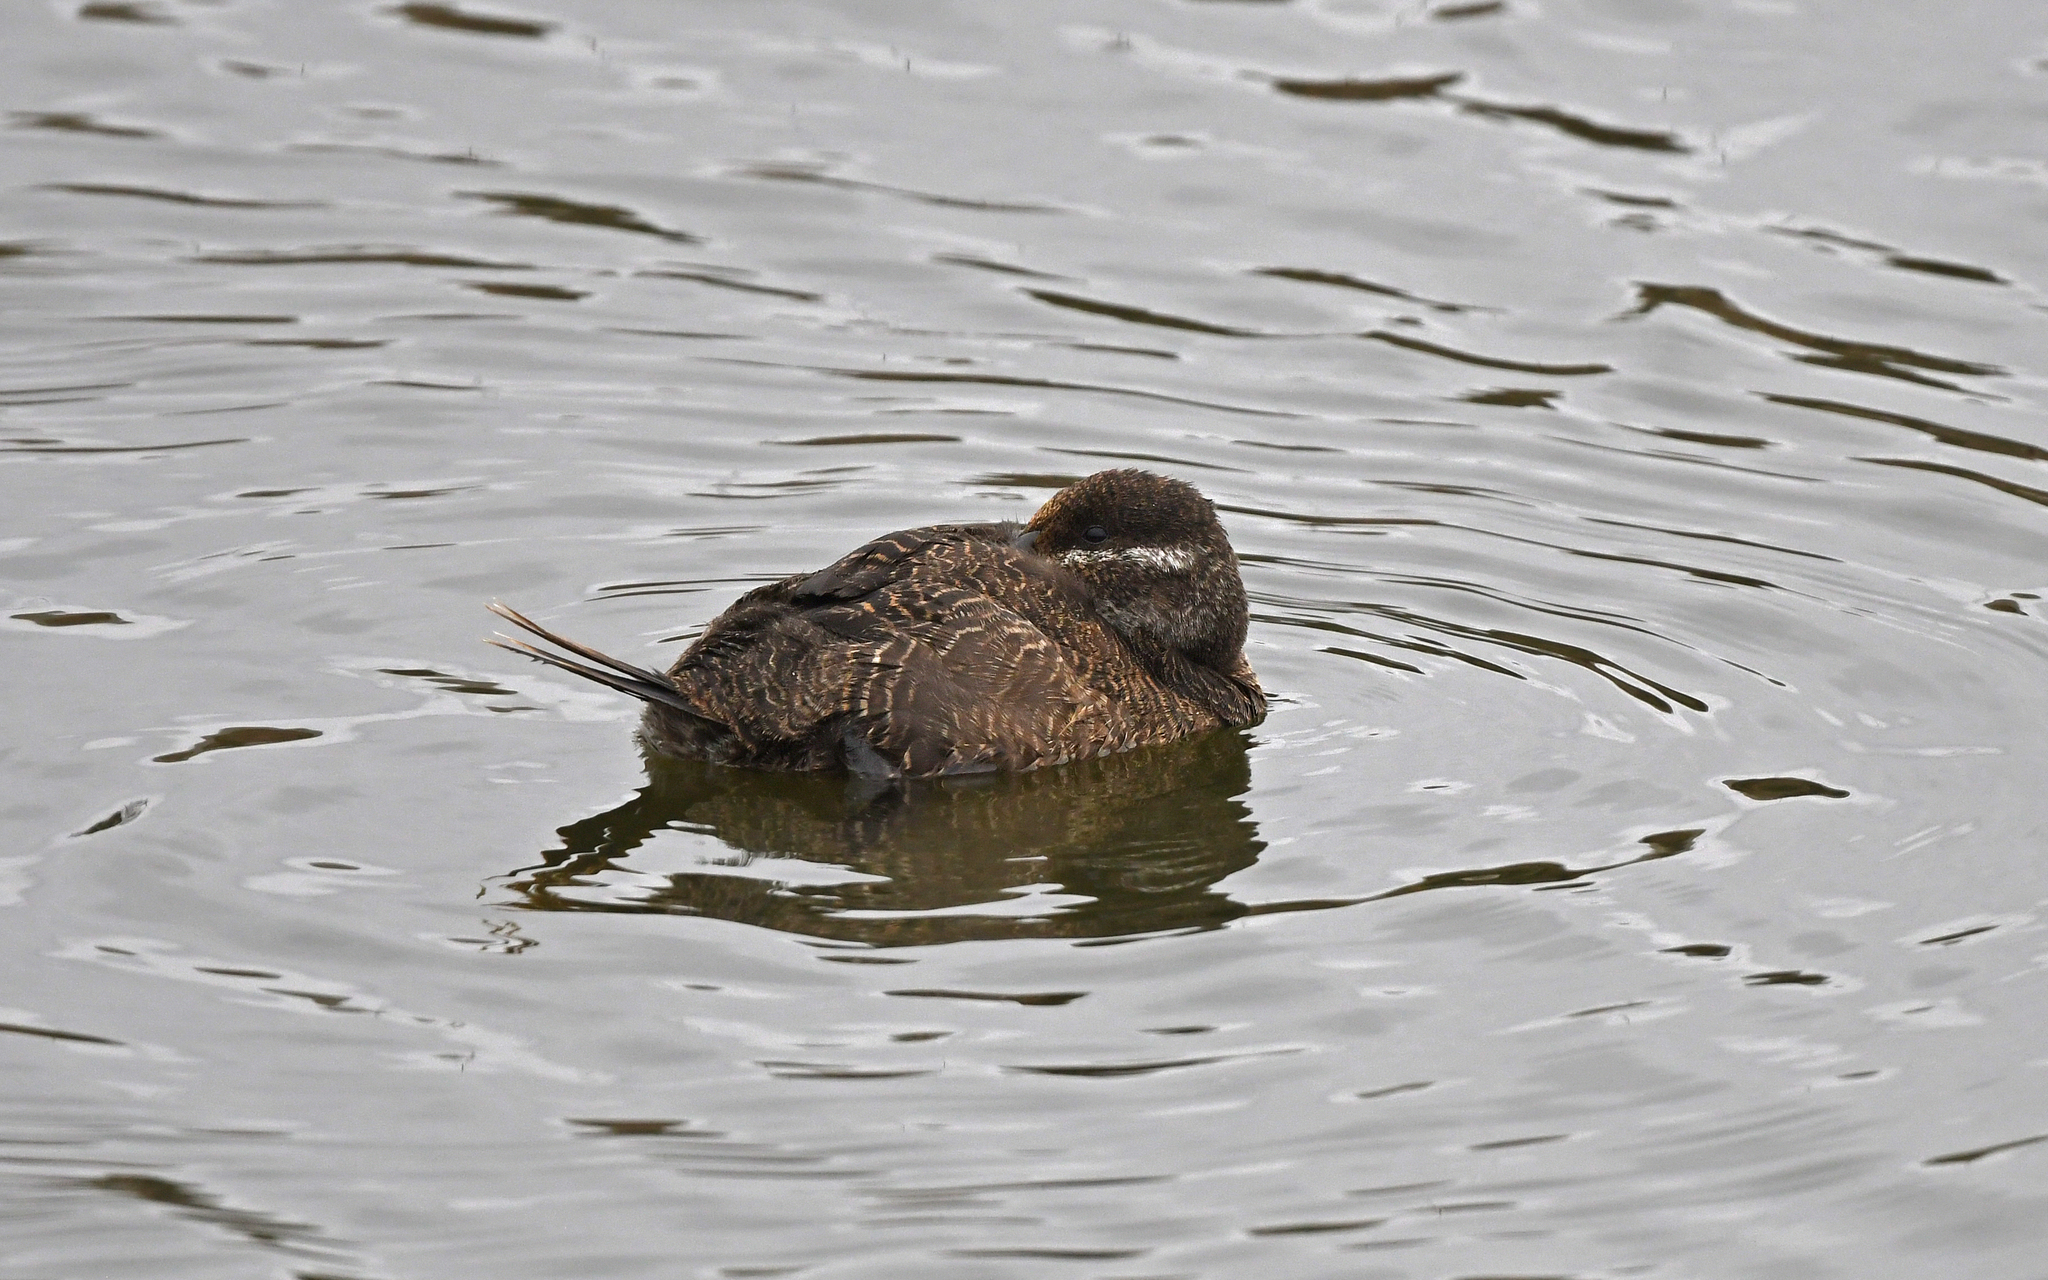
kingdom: Animalia
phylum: Chordata
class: Aves
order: Anseriformes
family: Anatidae
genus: Oxyura
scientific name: Oxyura vittata
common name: Lake duck
